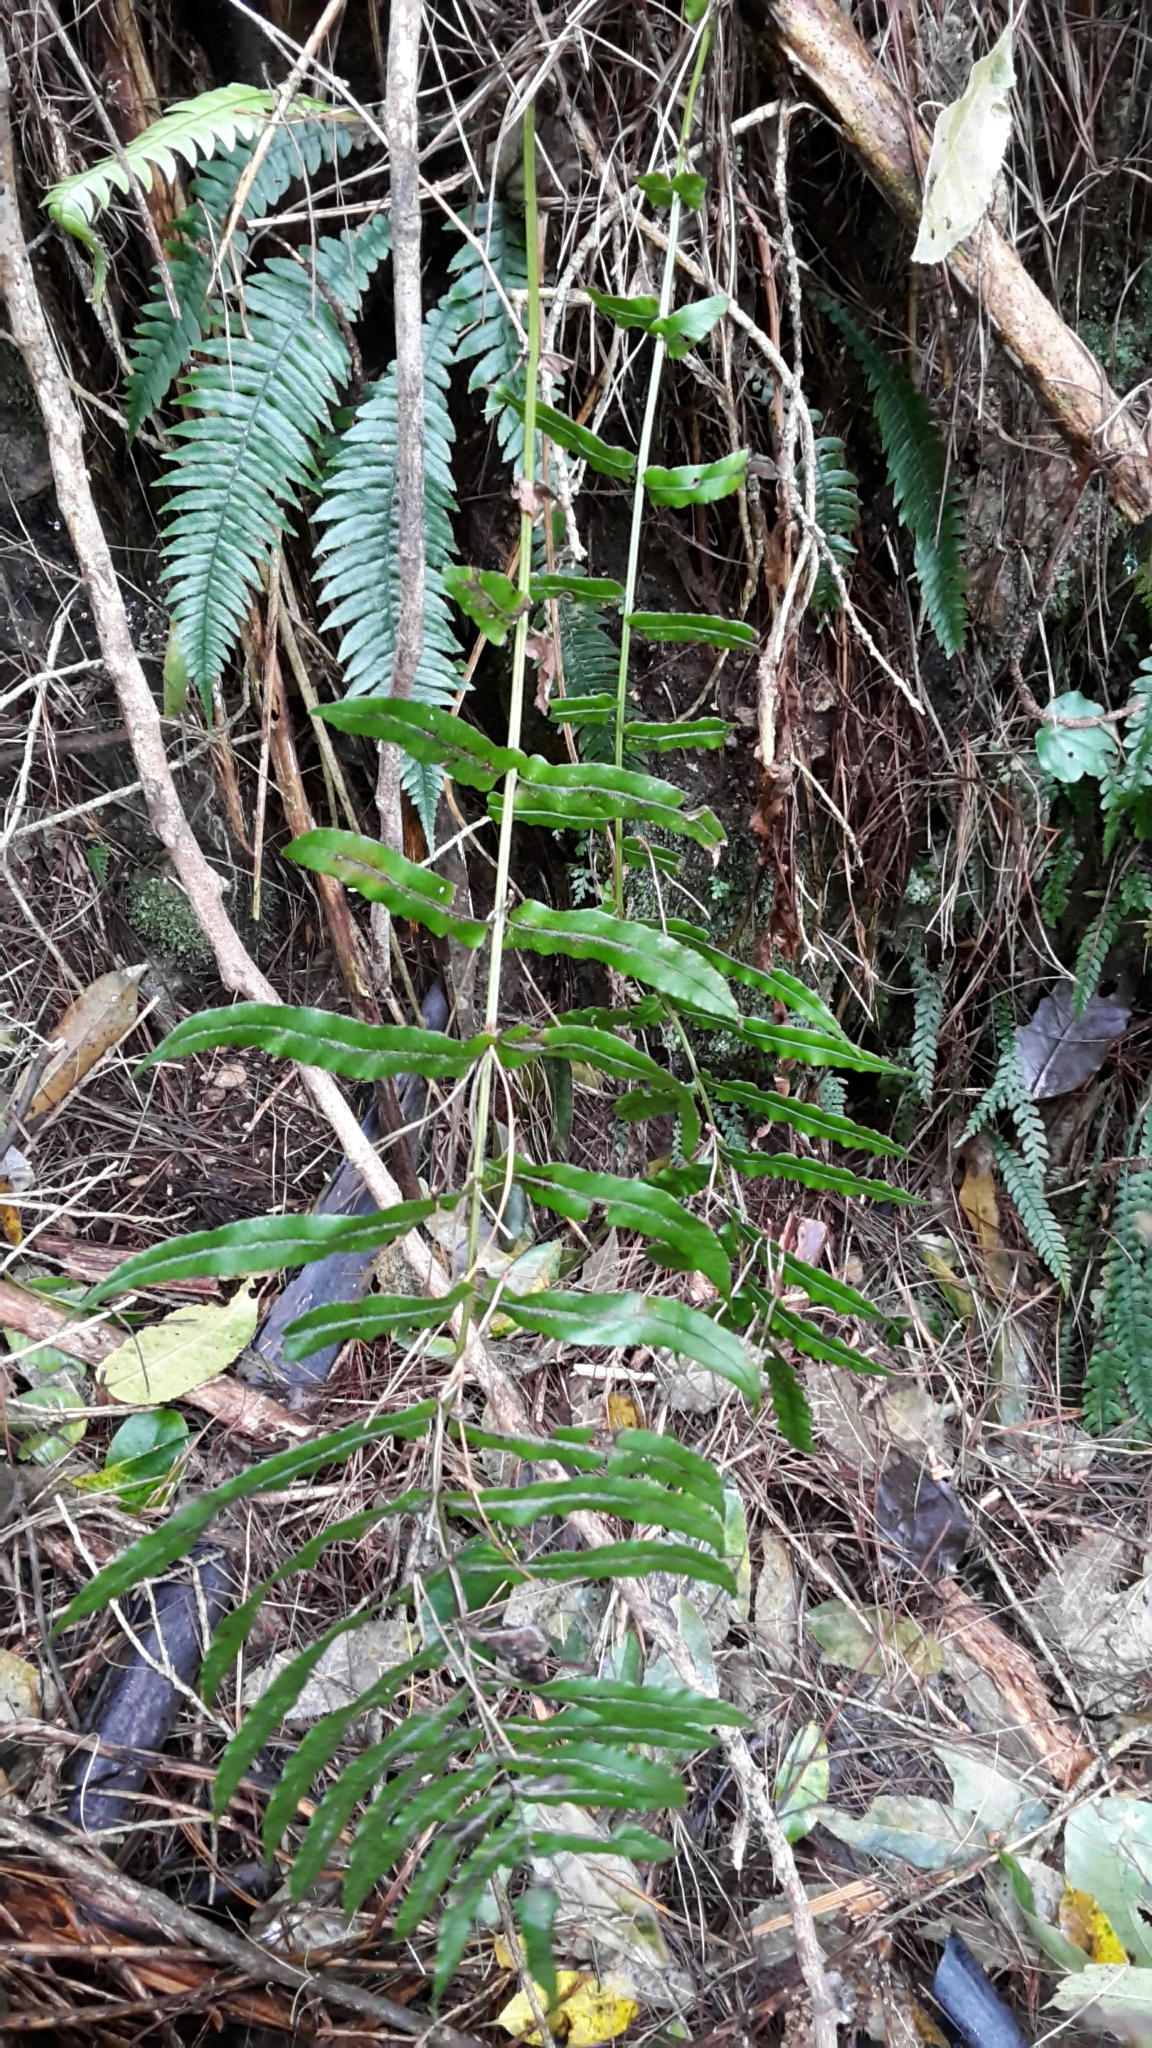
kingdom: Plantae
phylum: Tracheophyta
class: Polypodiopsida
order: Polypodiales
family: Blechnaceae
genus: Parablechnum
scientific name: Parablechnum novae-zelandiae
